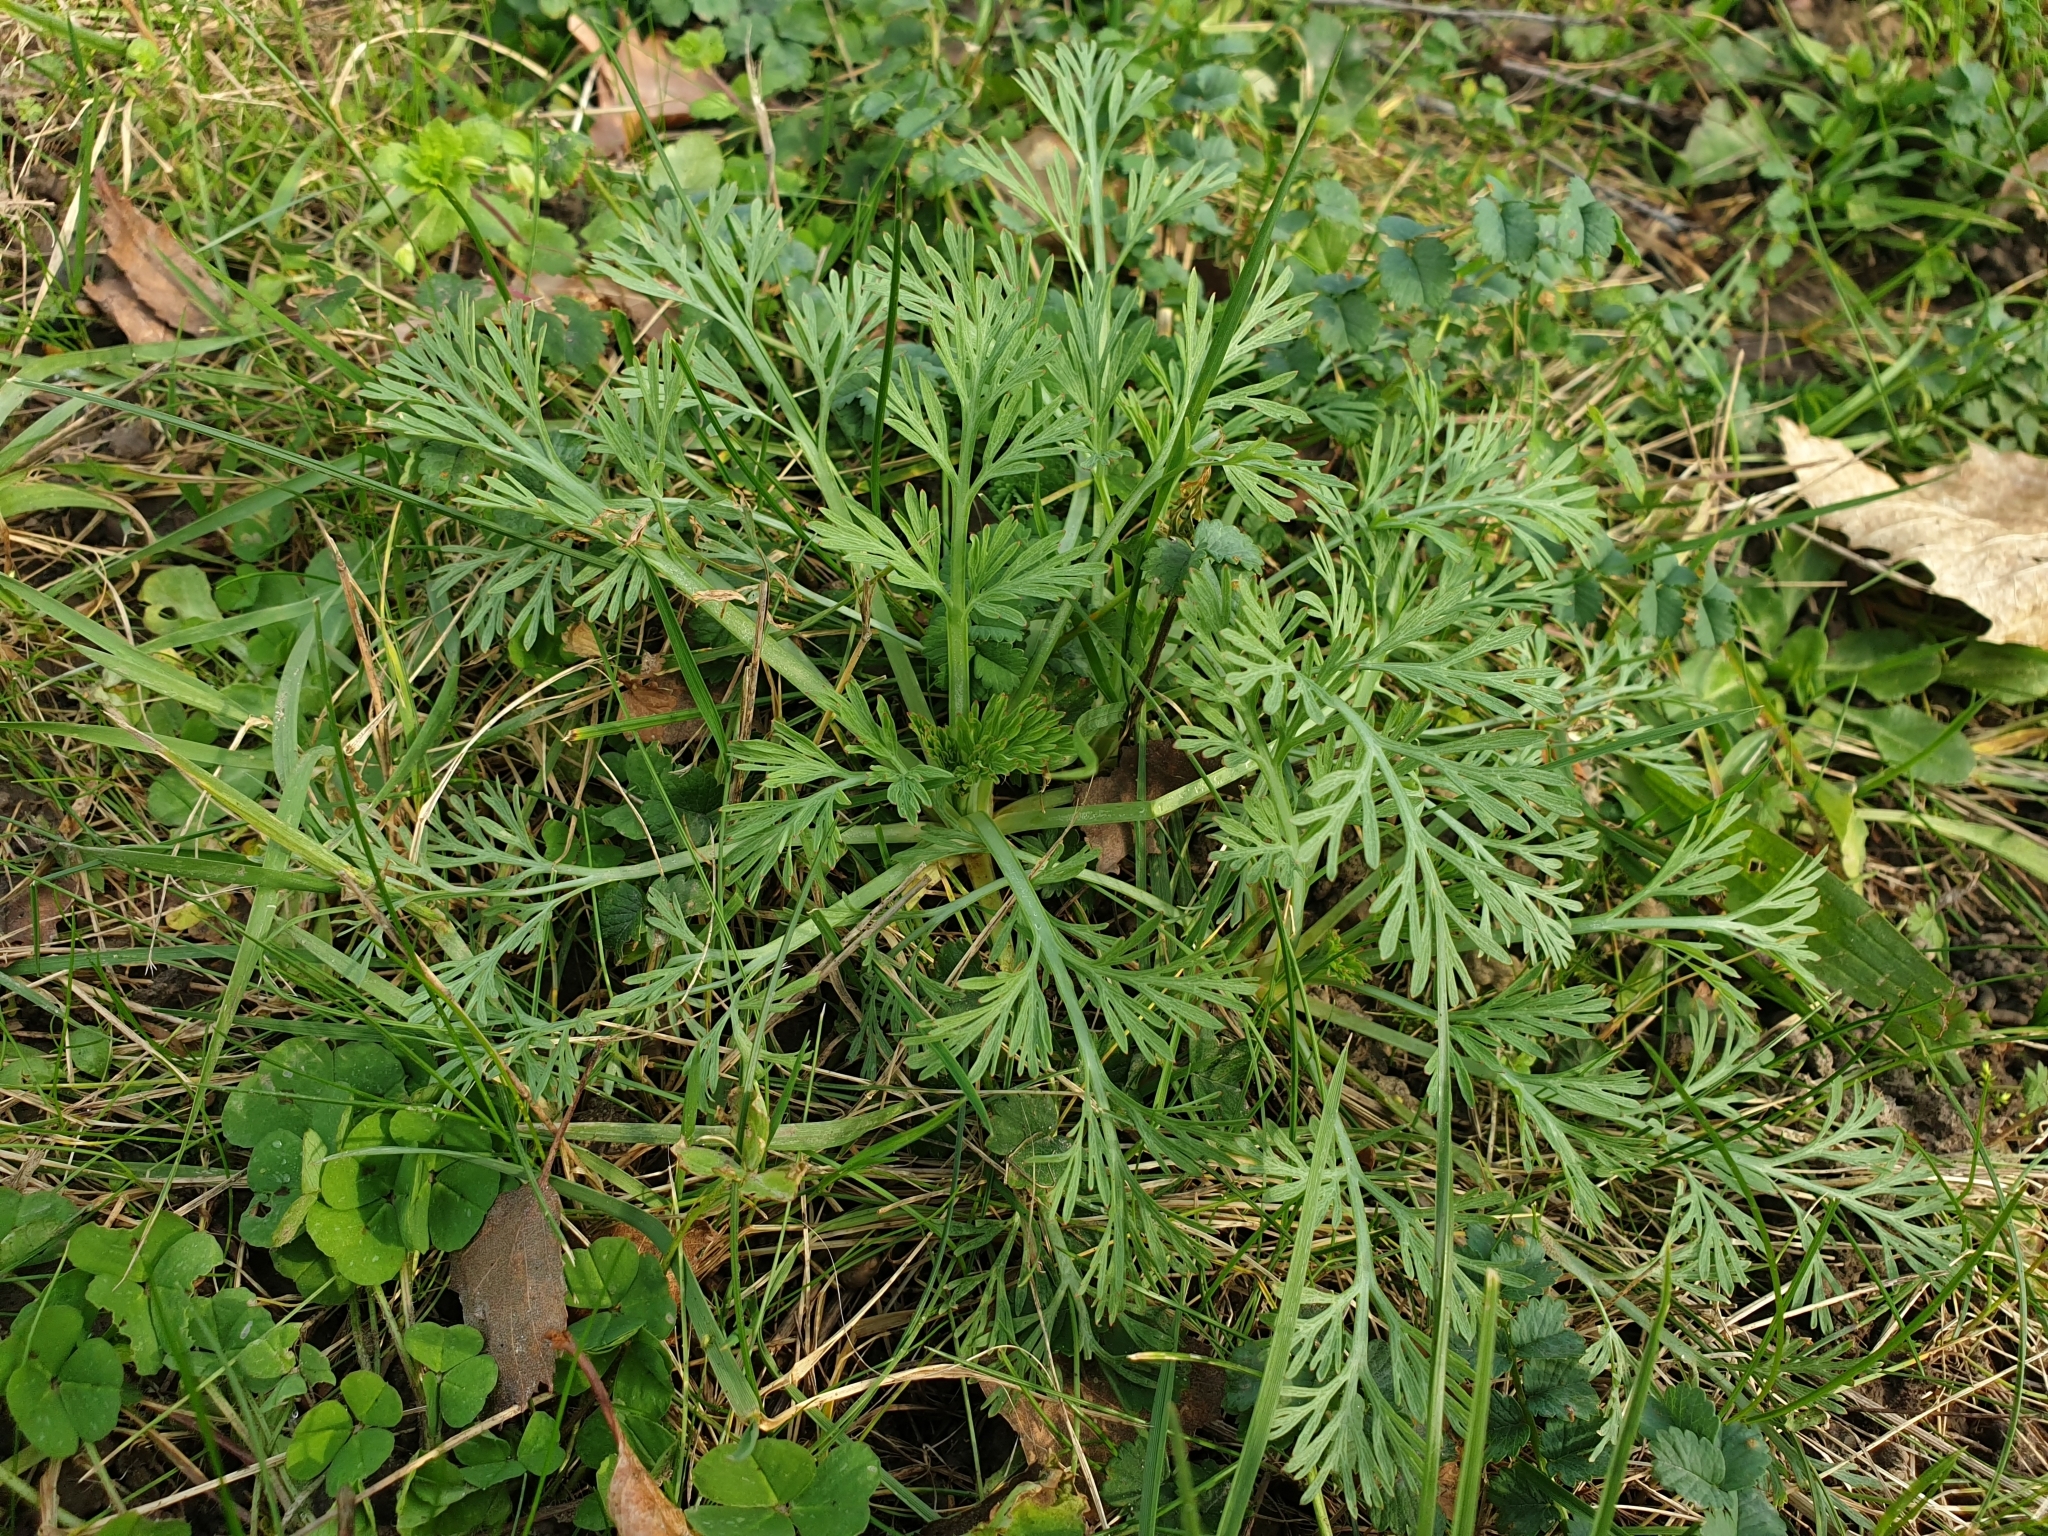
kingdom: Plantae
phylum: Tracheophyta
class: Magnoliopsida
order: Ranunculales
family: Papaveraceae
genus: Eschscholzia
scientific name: Eschscholzia californica
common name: California poppy
